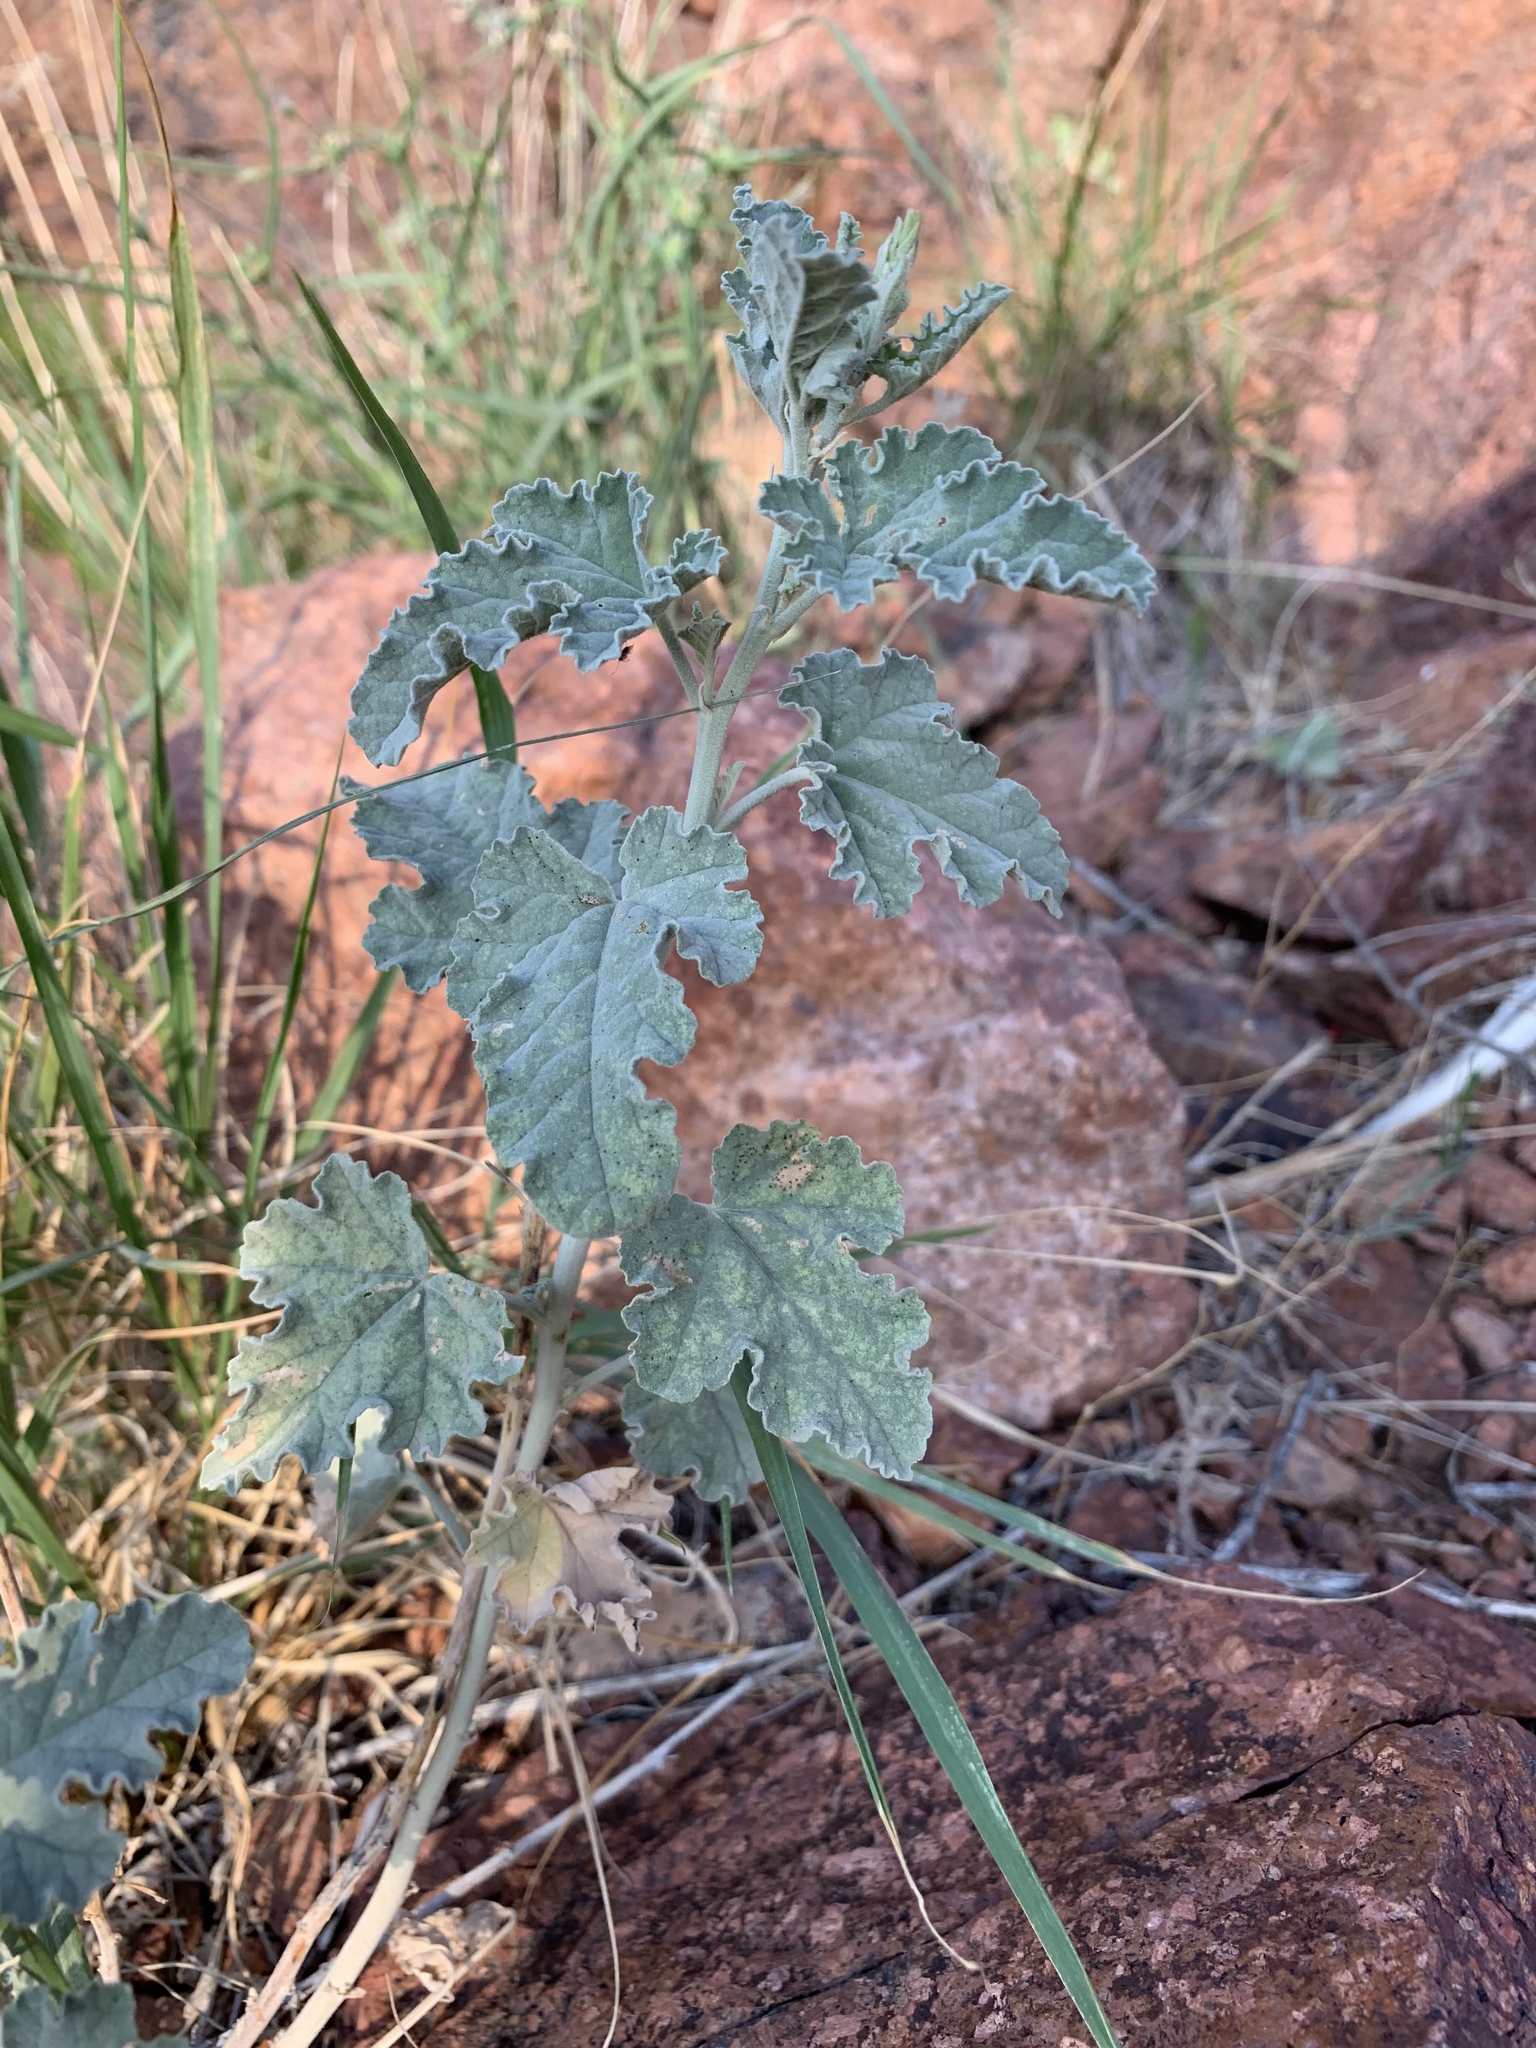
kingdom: Plantae
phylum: Tracheophyta
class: Magnoliopsida
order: Malvales
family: Malvaceae
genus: Sphaeralcea
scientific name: Sphaeralcea ambigua
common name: Apricot globe-mallow
